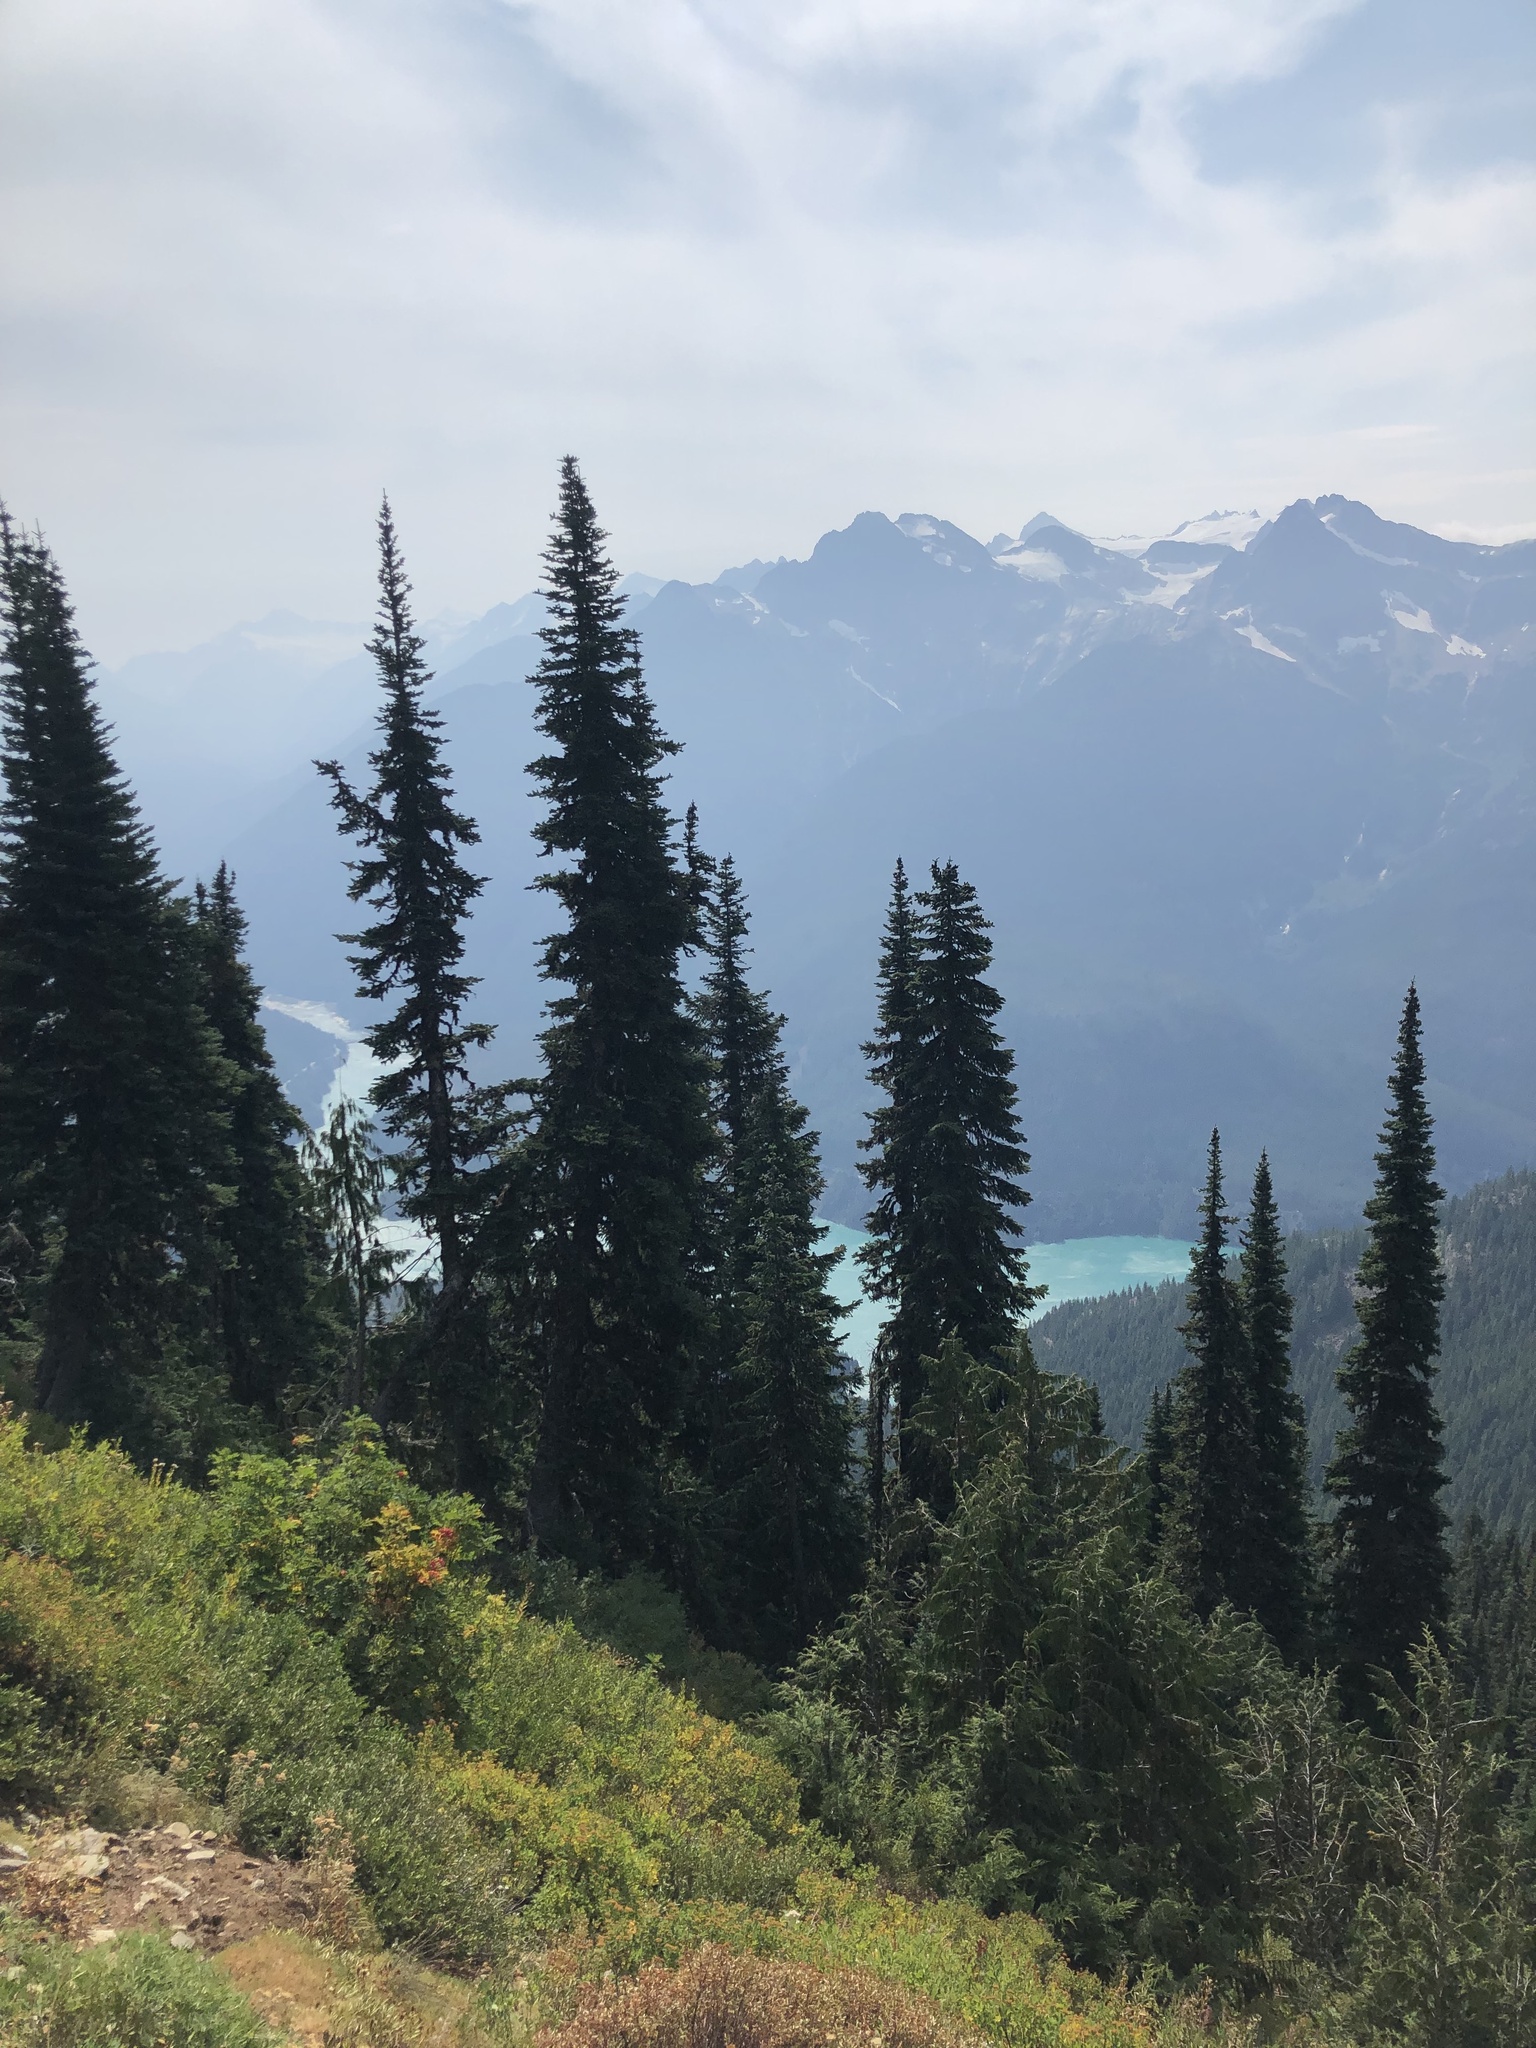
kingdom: Plantae
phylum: Tracheophyta
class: Pinopsida
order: Pinales
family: Cupressaceae
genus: Xanthocyparis
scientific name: Xanthocyparis nootkatensis
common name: Nootka cypress
